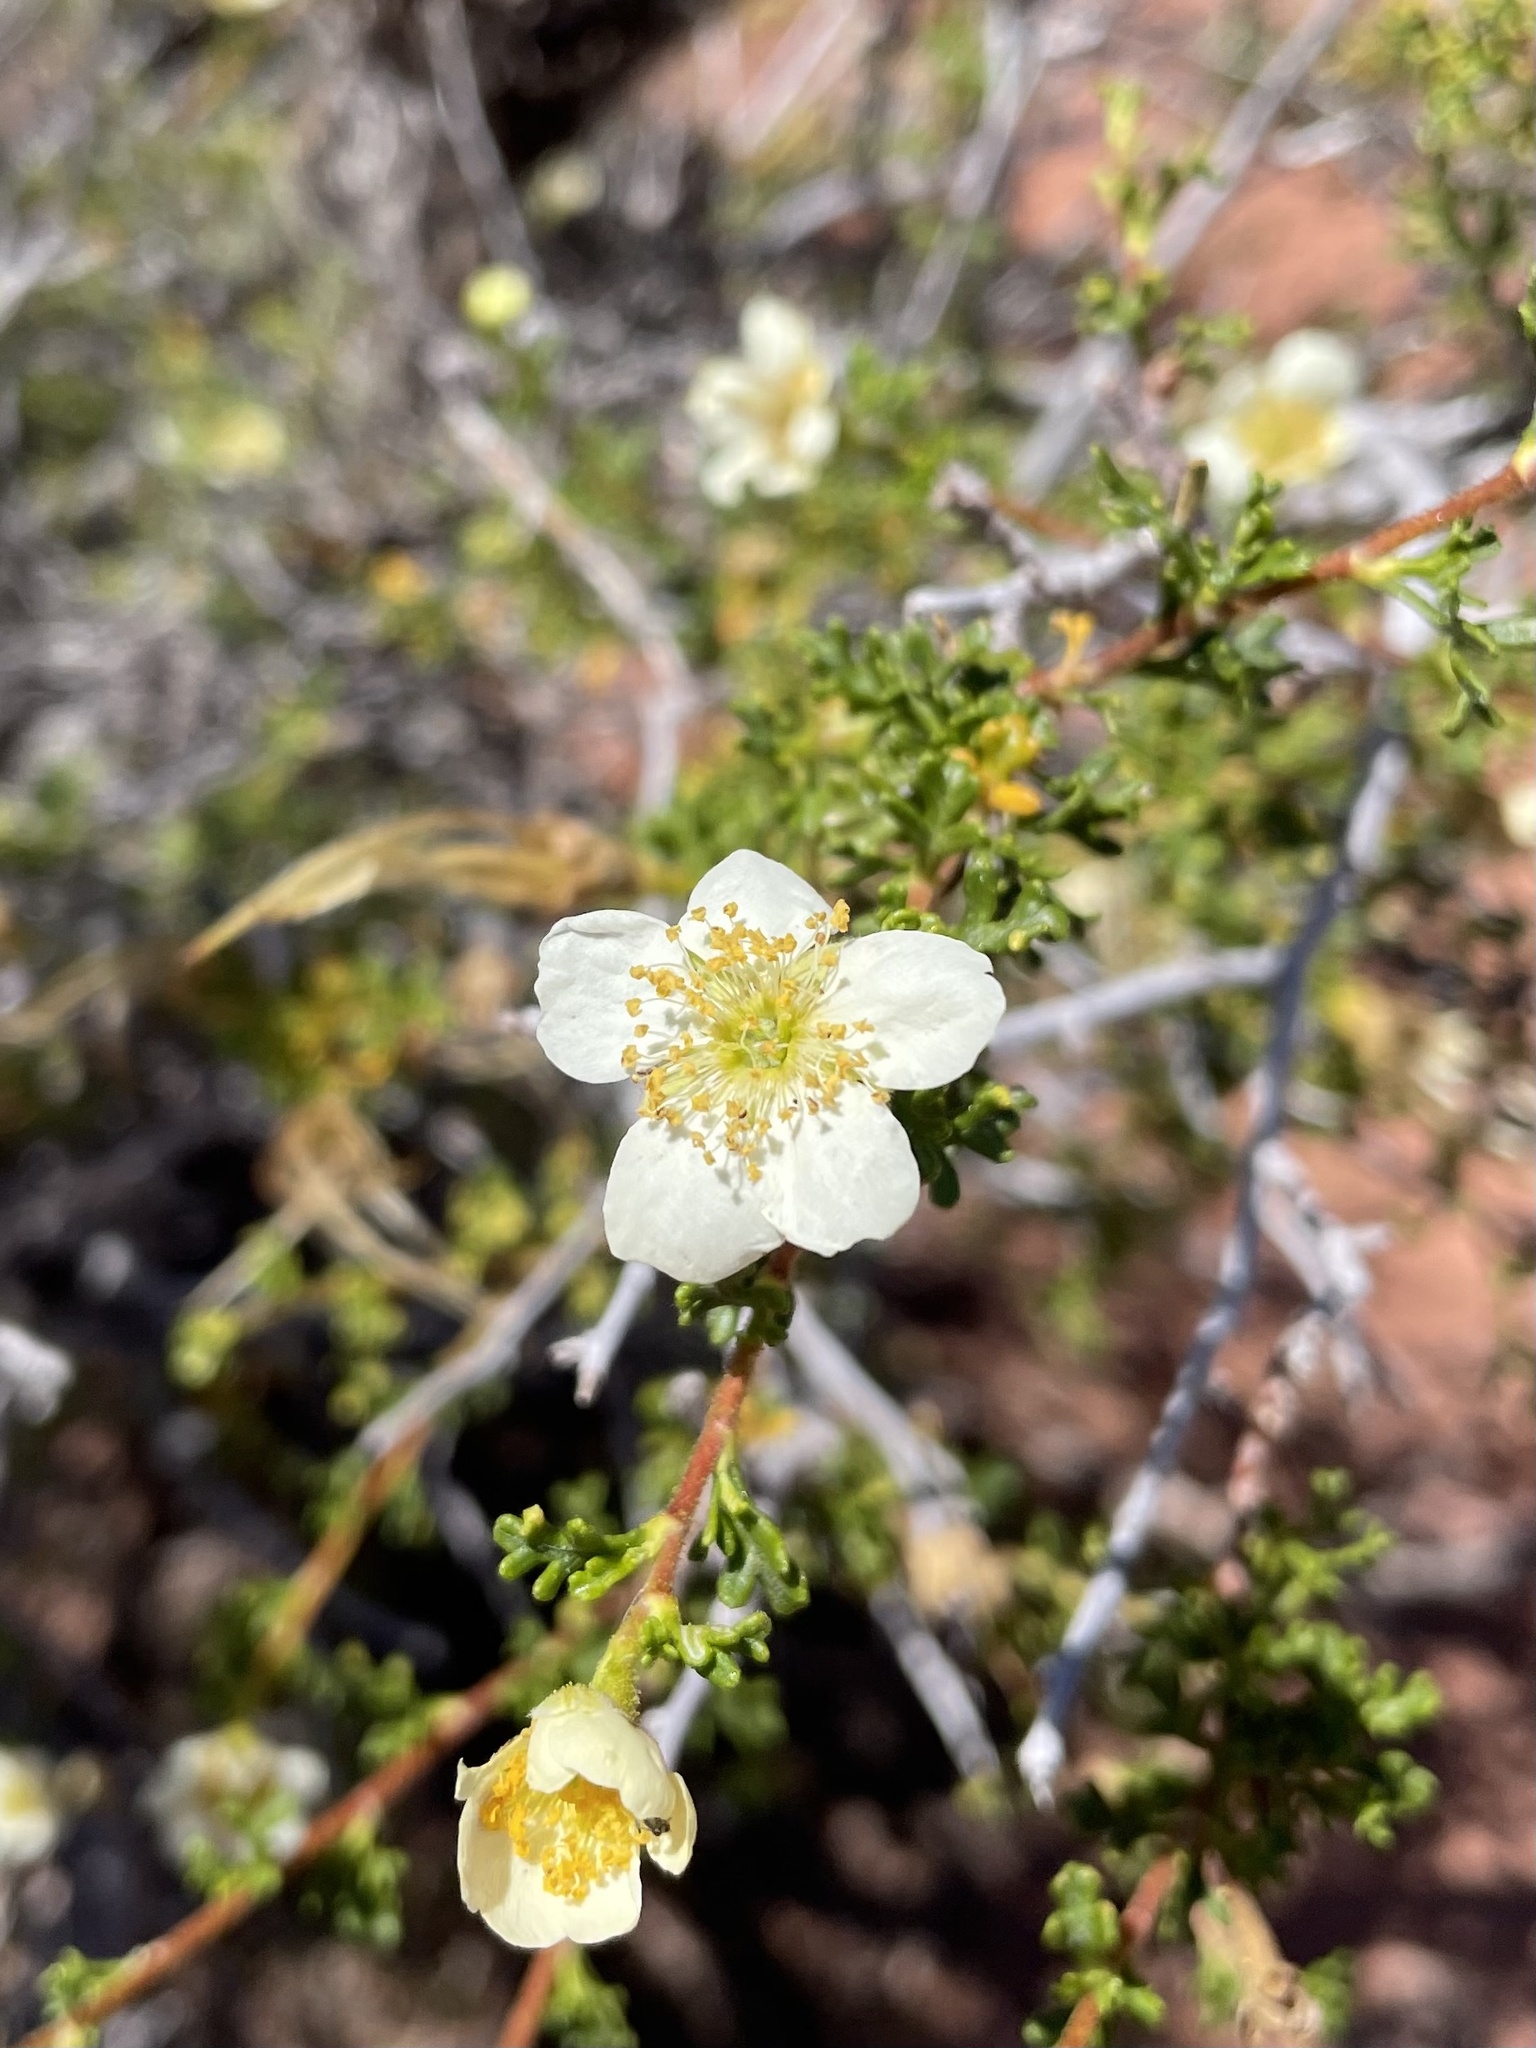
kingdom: Plantae
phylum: Tracheophyta
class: Magnoliopsida
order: Rosales
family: Rosaceae
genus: Purshia
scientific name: Purshia stansburiana
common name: Stansbury's cliffrose
